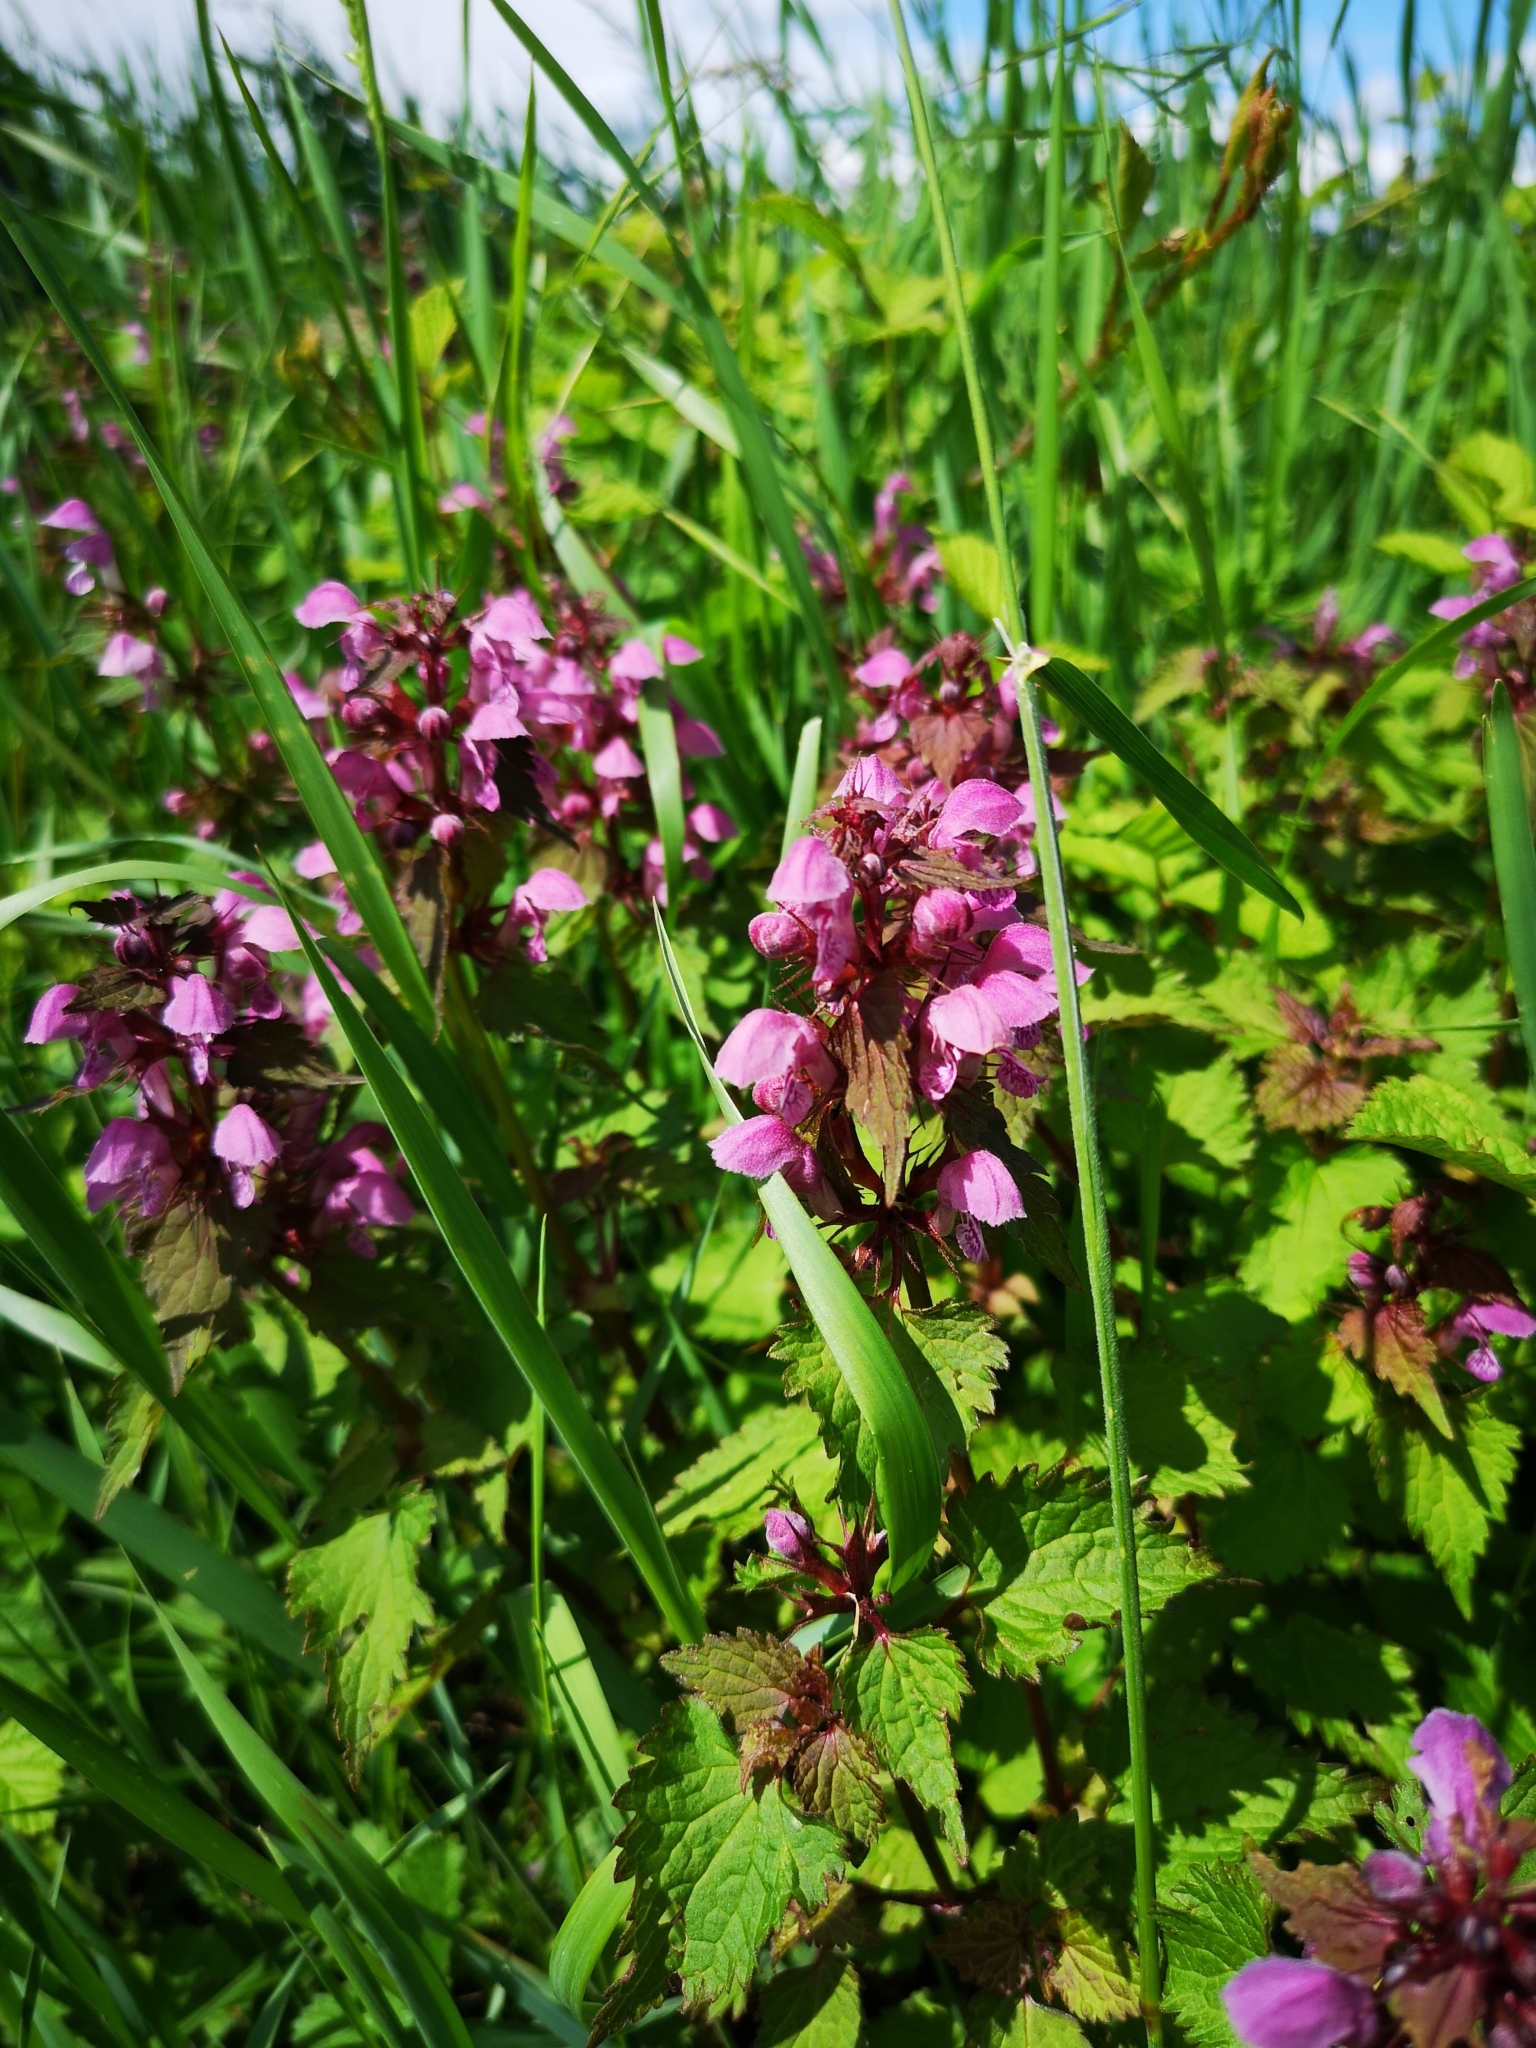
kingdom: Plantae
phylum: Tracheophyta
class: Magnoliopsida
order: Lamiales
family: Lamiaceae
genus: Lamium
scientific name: Lamium maculatum
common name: Spotted dead-nettle
